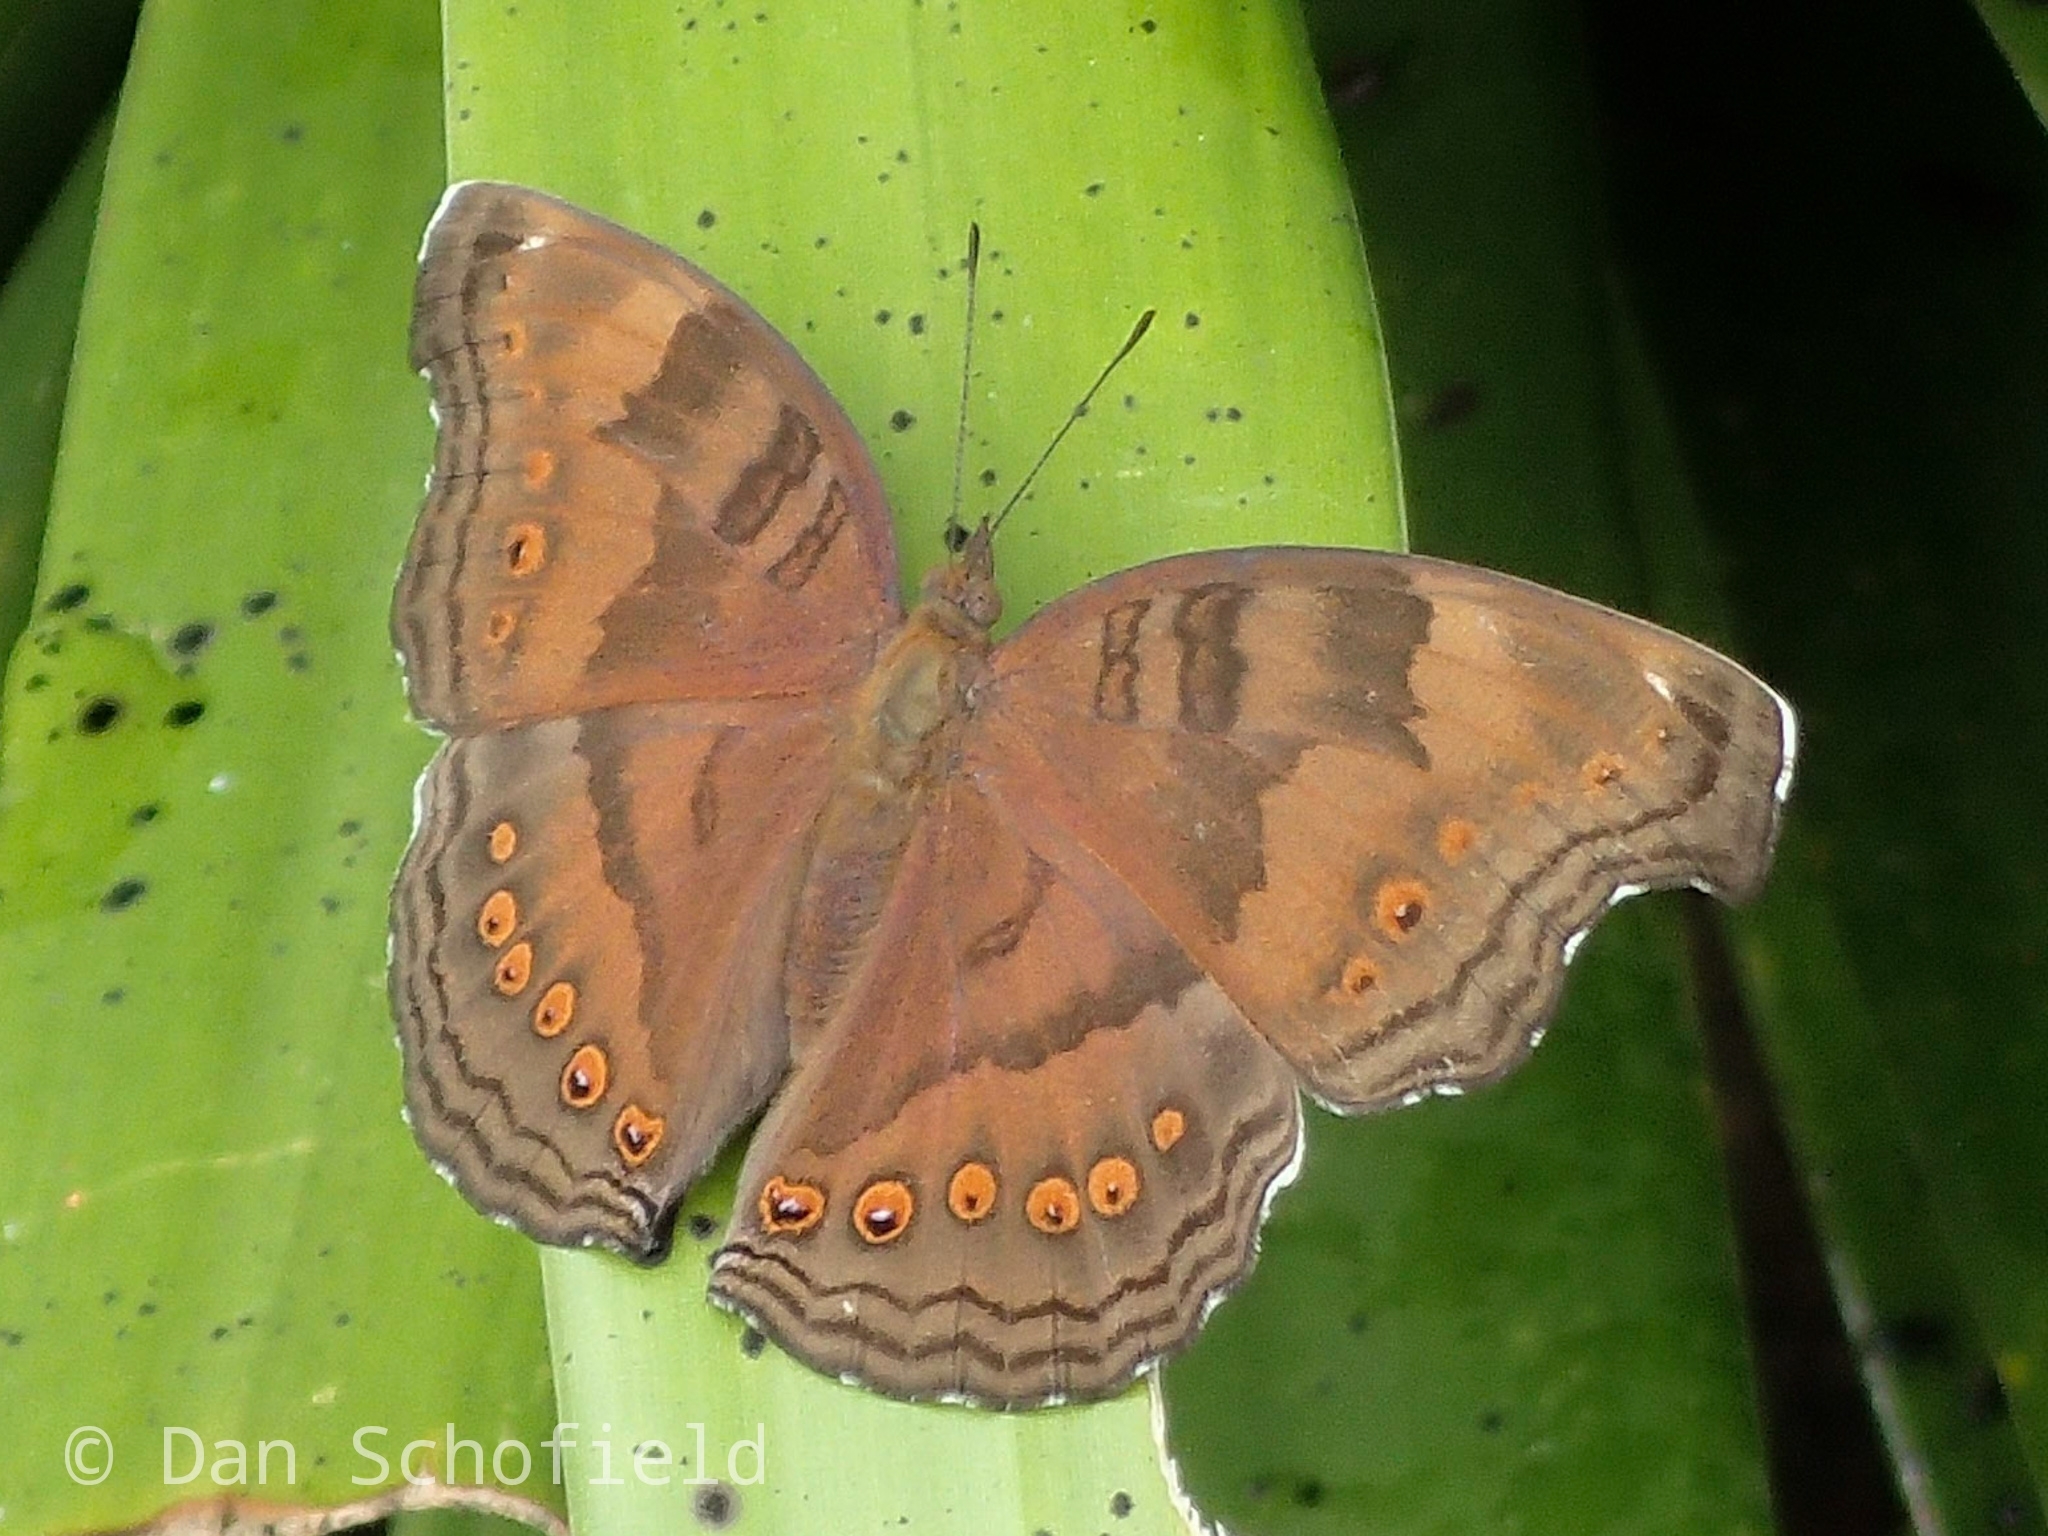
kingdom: Animalia
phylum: Arthropoda
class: Insecta
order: Lepidoptera
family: Nymphalidae
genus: Junonia
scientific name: Junonia
